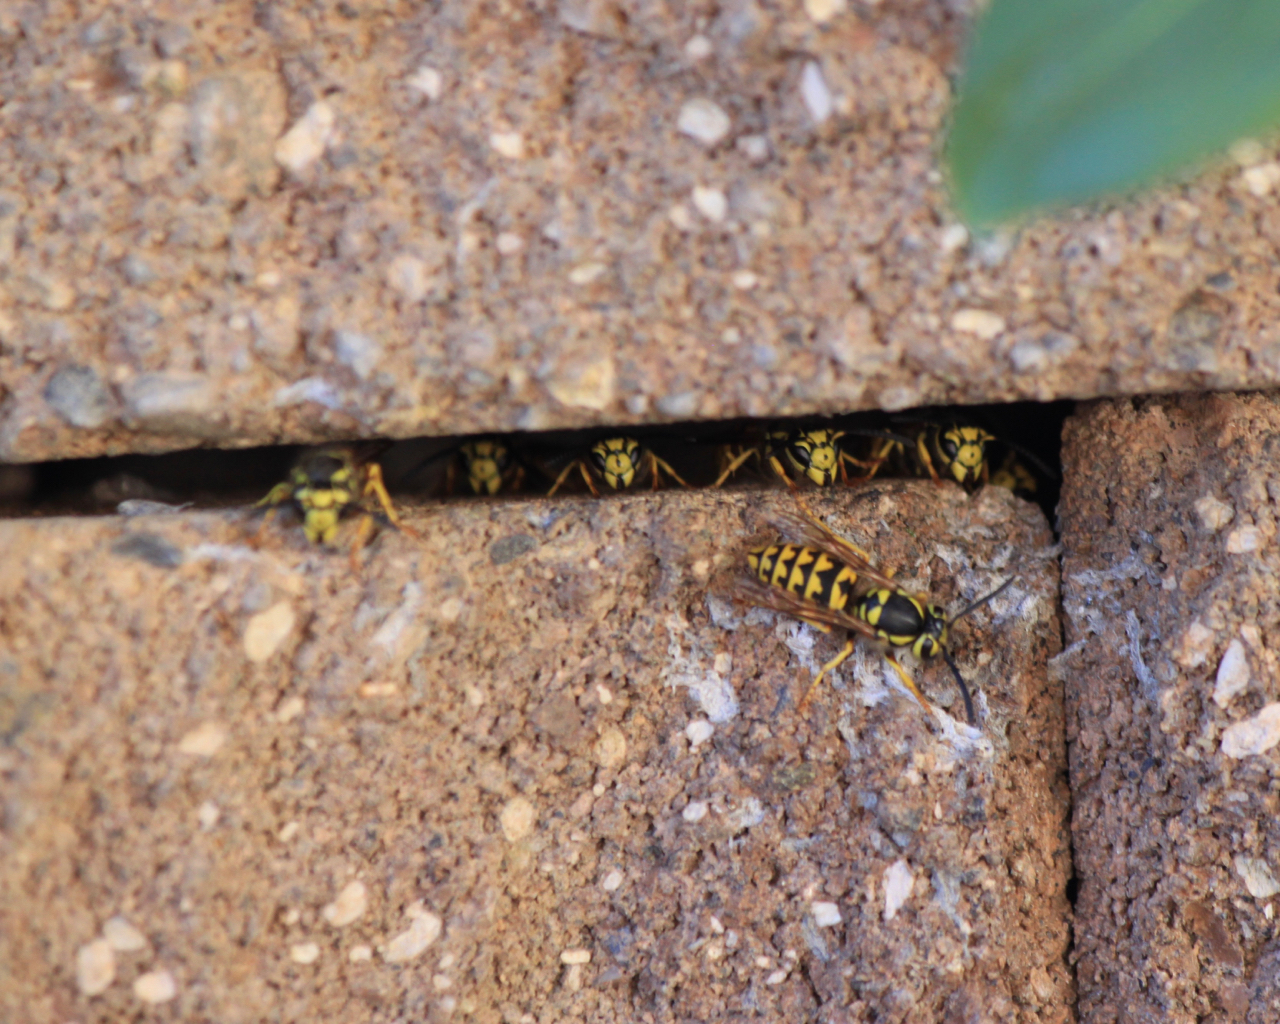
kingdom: Animalia
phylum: Arthropoda
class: Insecta
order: Hymenoptera
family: Vespidae
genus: Vespula
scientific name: Vespula pensylvanica
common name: Western yellowjacket
